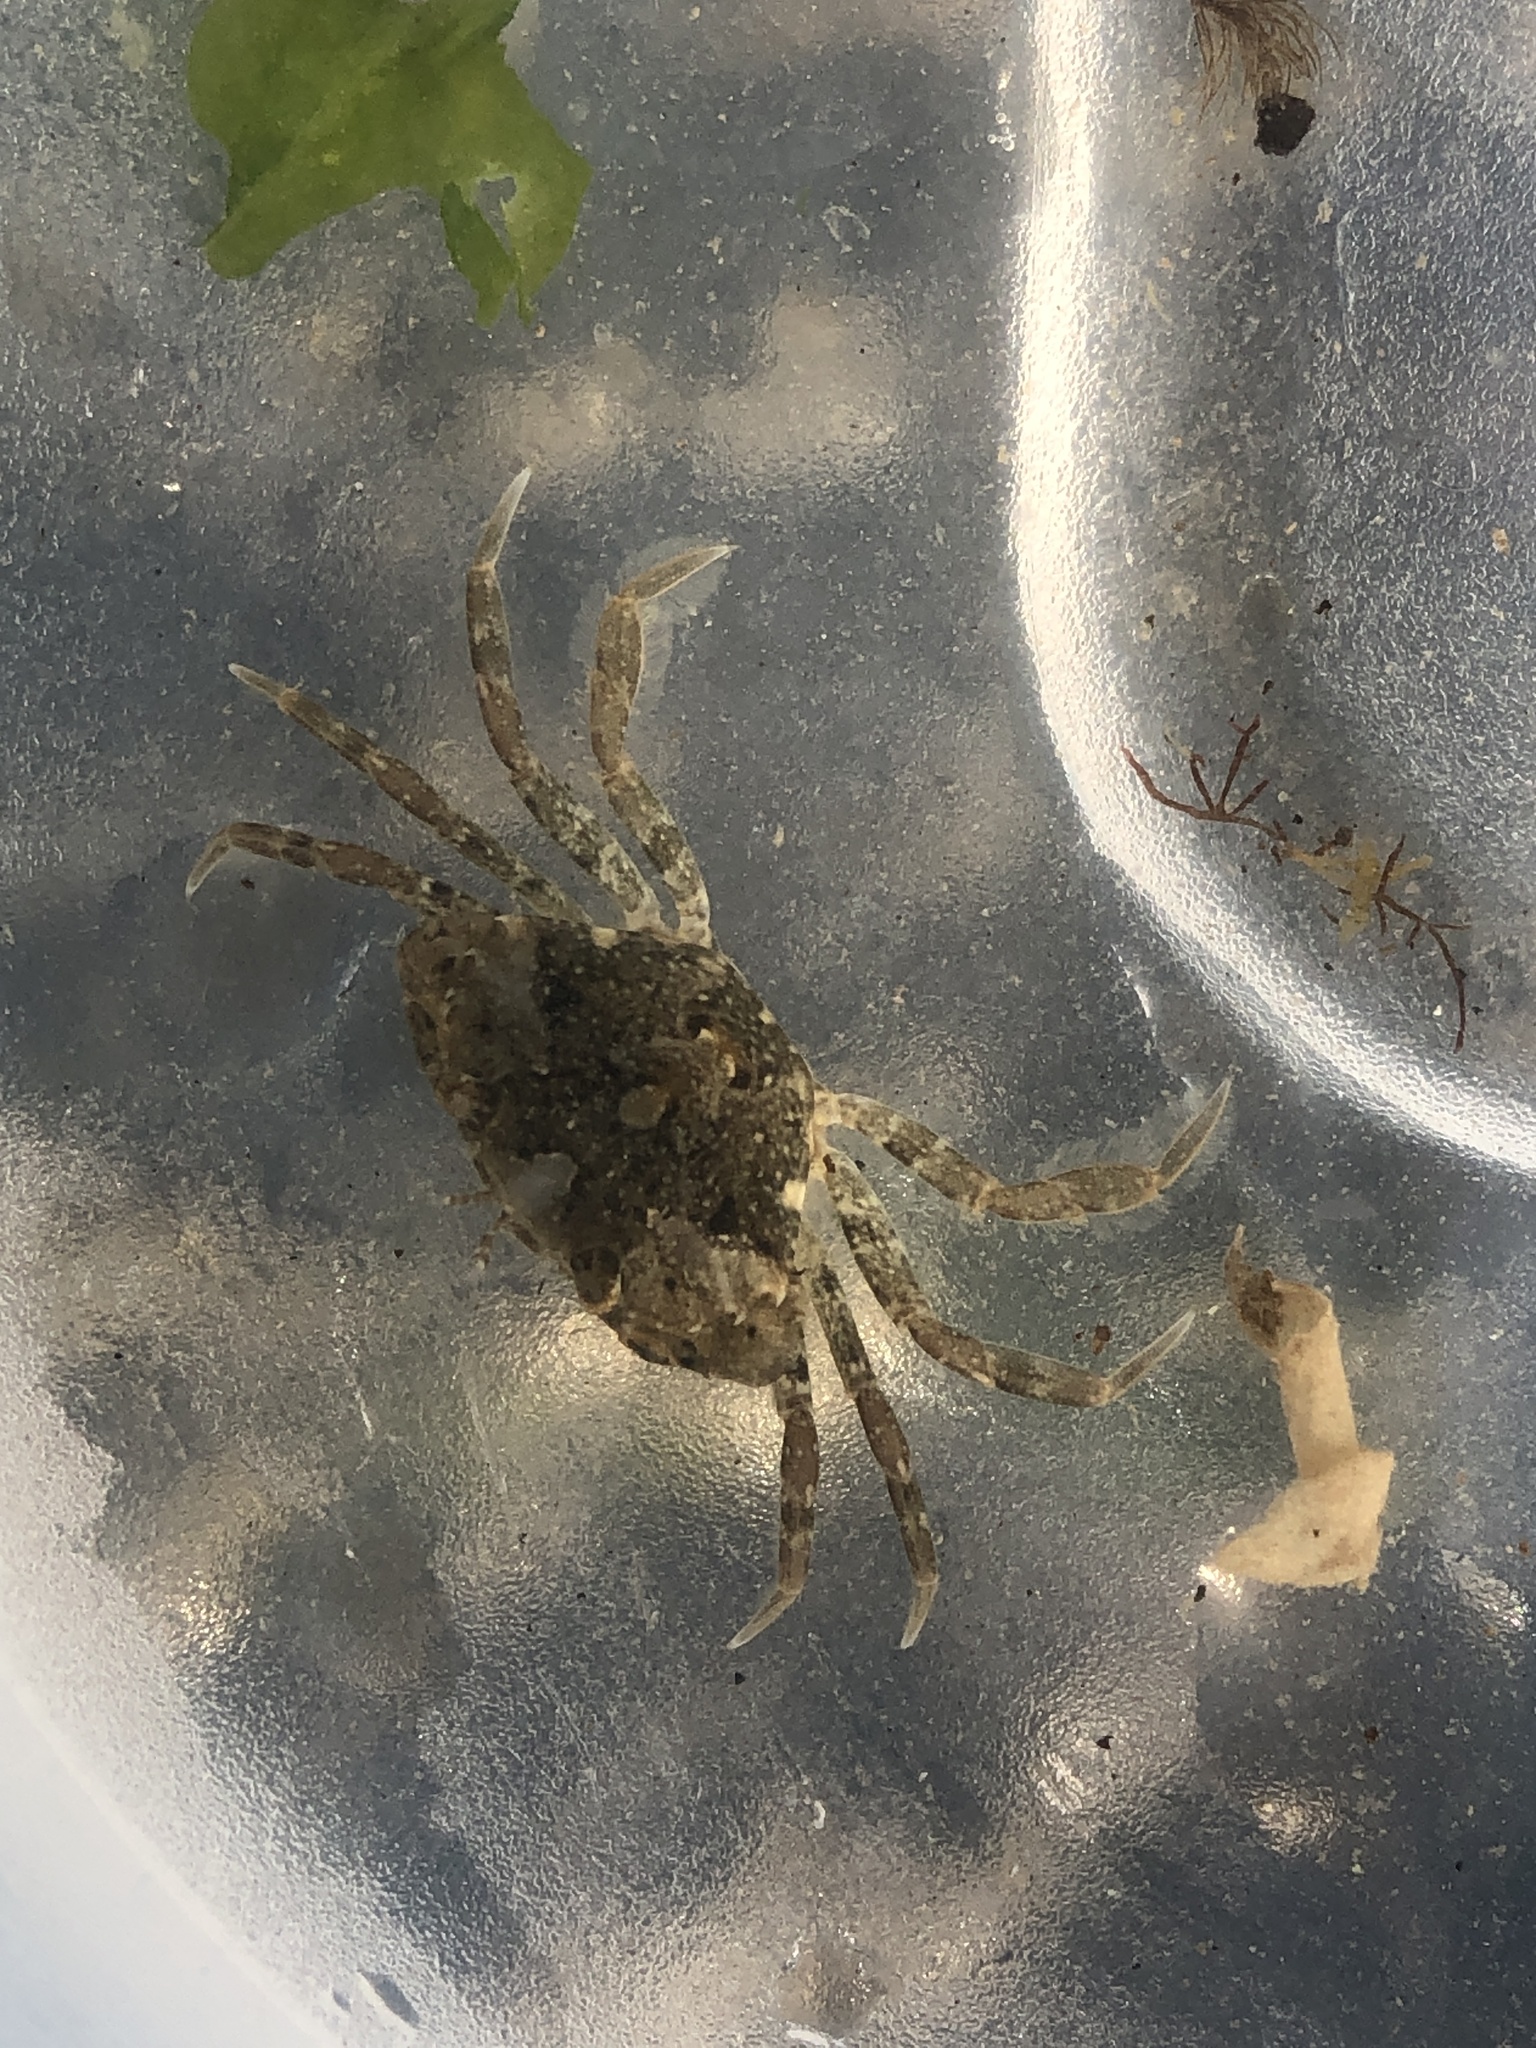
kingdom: Animalia
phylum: Arthropoda
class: Malacostraca
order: Decapoda
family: Carcinidae
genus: Carcinus
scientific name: Carcinus maenas
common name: European green crab
